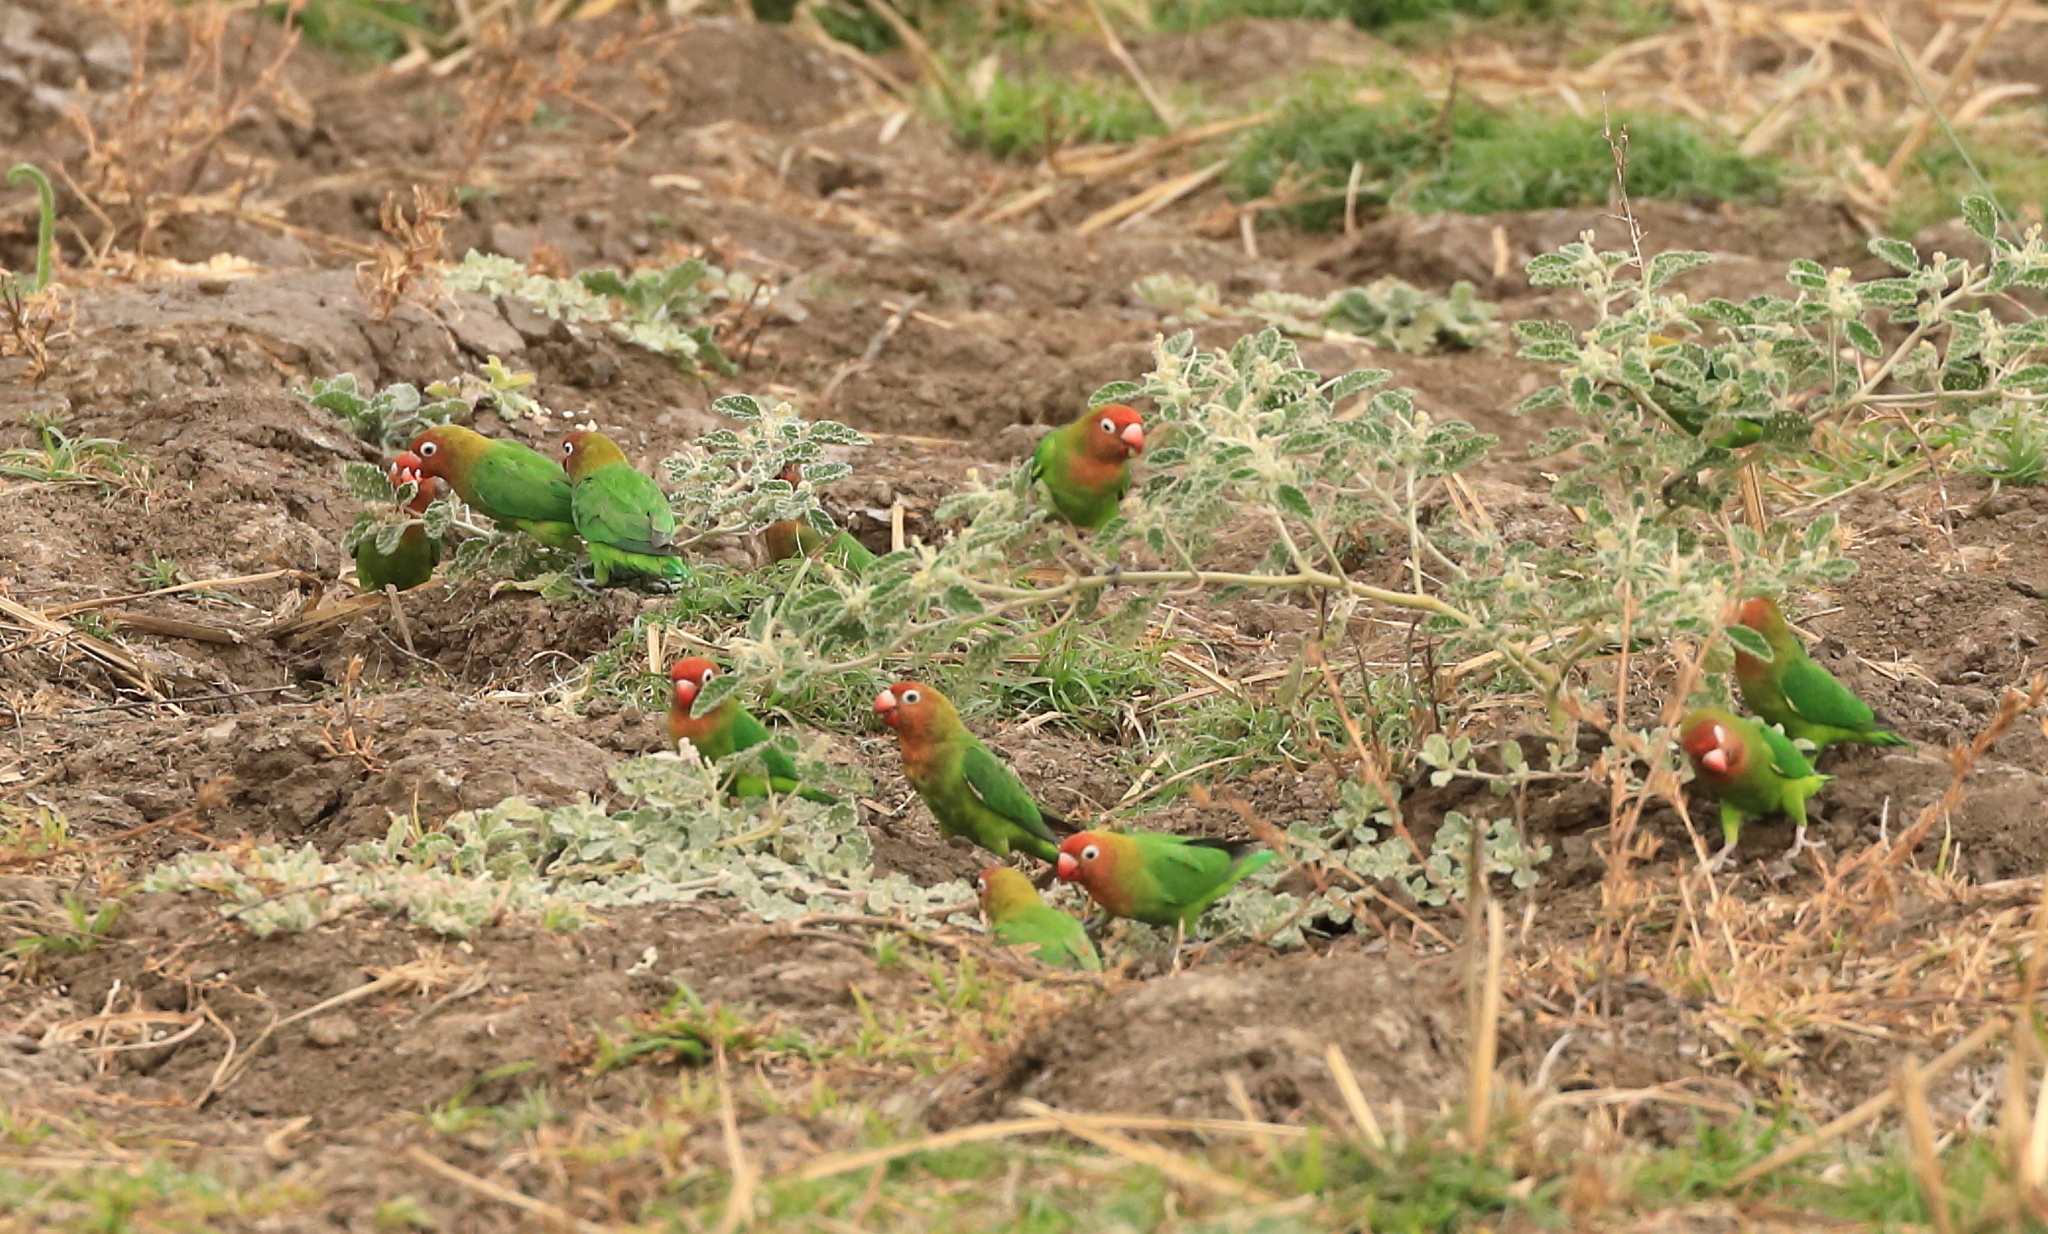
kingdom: Animalia
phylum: Chordata
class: Aves
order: Psittaciformes
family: Psittacidae
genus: Agapornis
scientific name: Agapornis lilianae
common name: Lilian's lovebird
